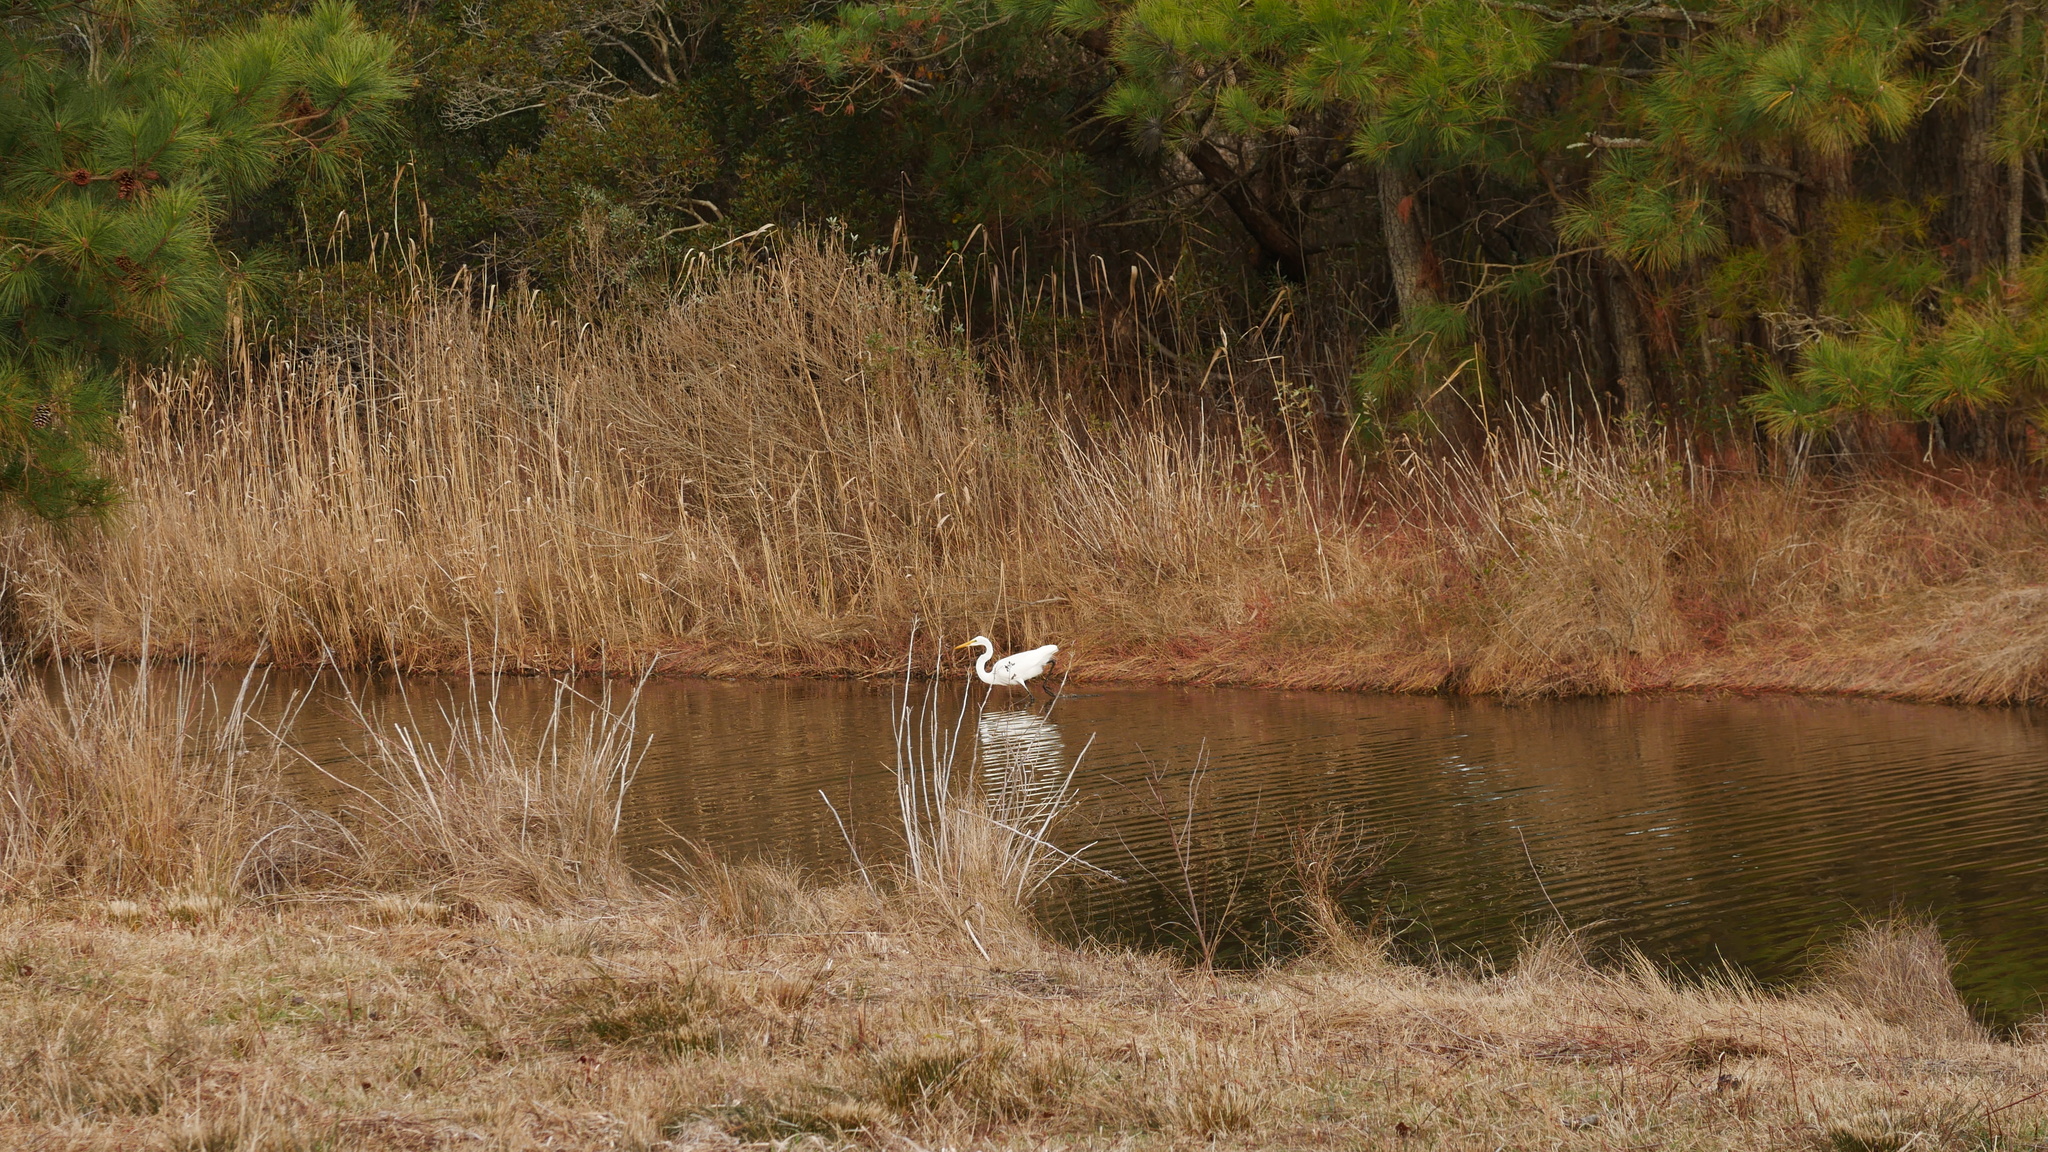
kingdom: Animalia
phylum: Chordata
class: Aves
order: Pelecaniformes
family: Ardeidae
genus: Ardea
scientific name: Ardea alba
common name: Great egret
